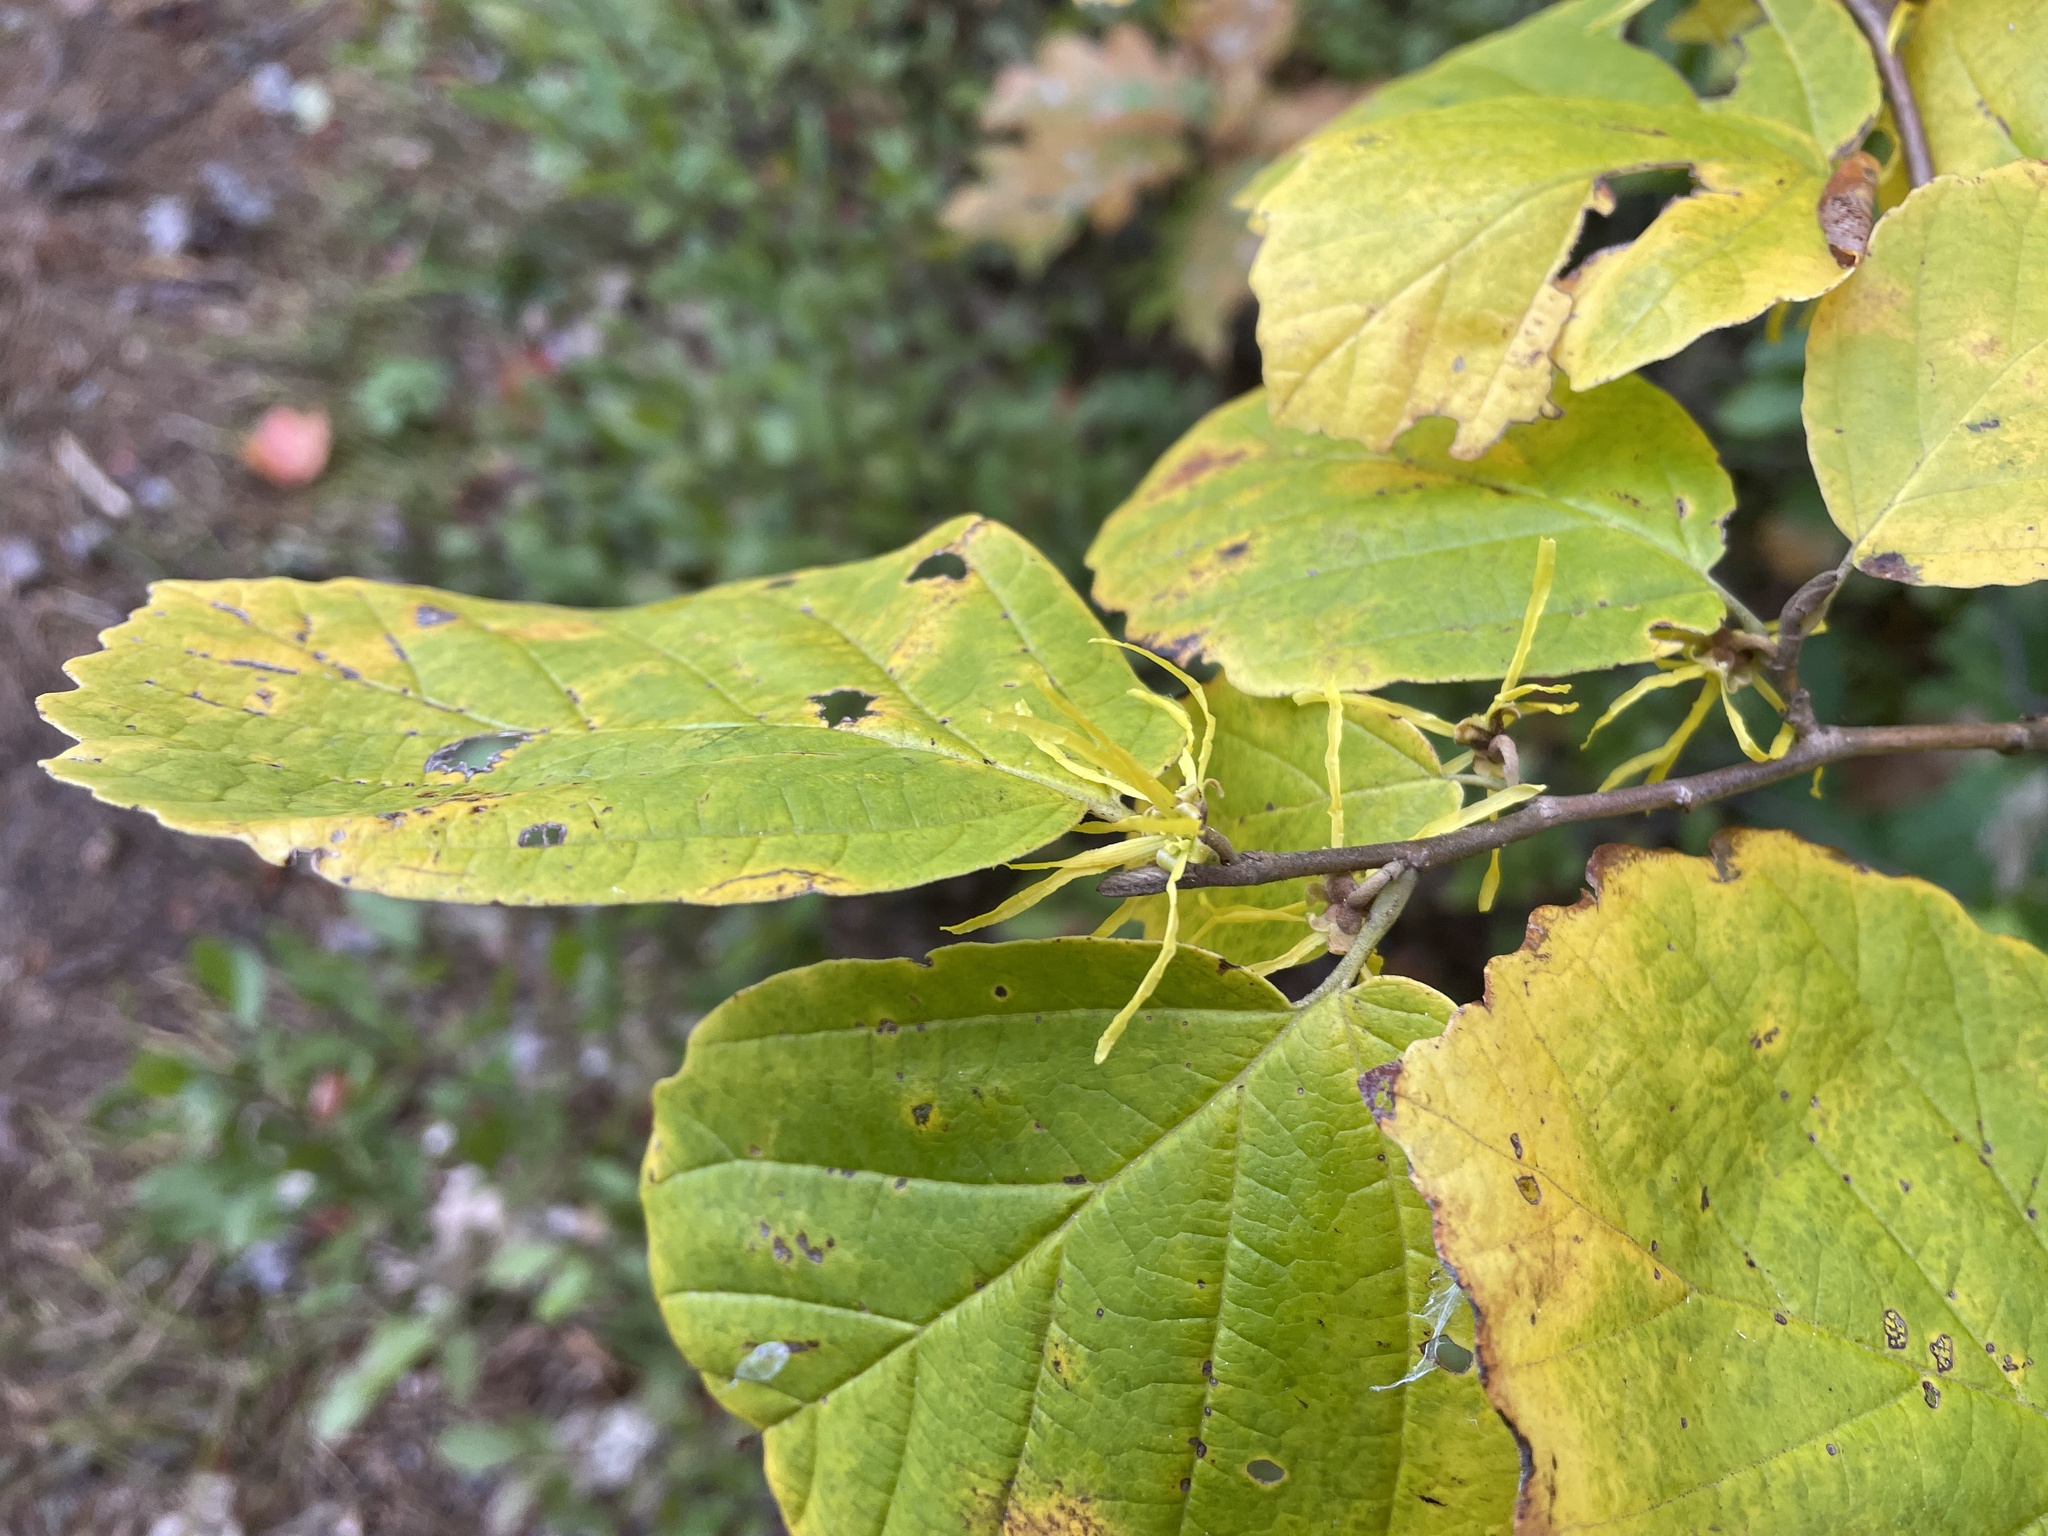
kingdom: Plantae
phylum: Tracheophyta
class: Magnoliopsida
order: Saxifragales
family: Hamamelidaceae
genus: Hamamelis
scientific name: Hamamelis virginiana
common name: Witch-hazel
